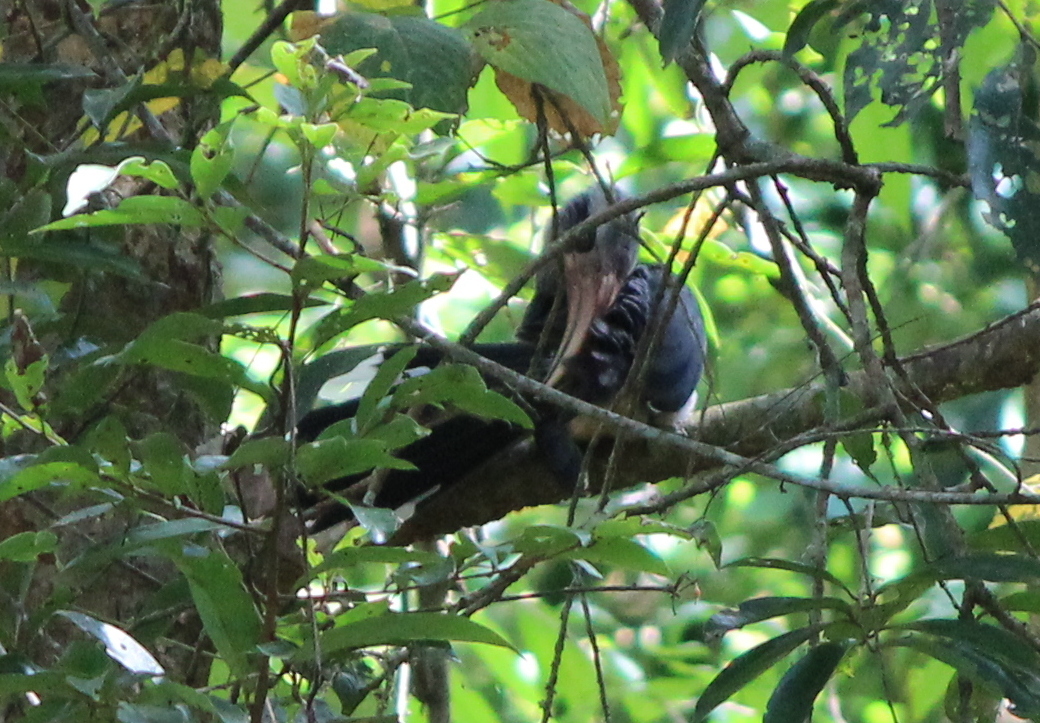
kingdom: Animalia
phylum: Chordata
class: Aves
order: Bucerotiformes
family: Bucerotidae
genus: Ocyceros
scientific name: Ocyceros griseus
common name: Malabar grey hornbill
